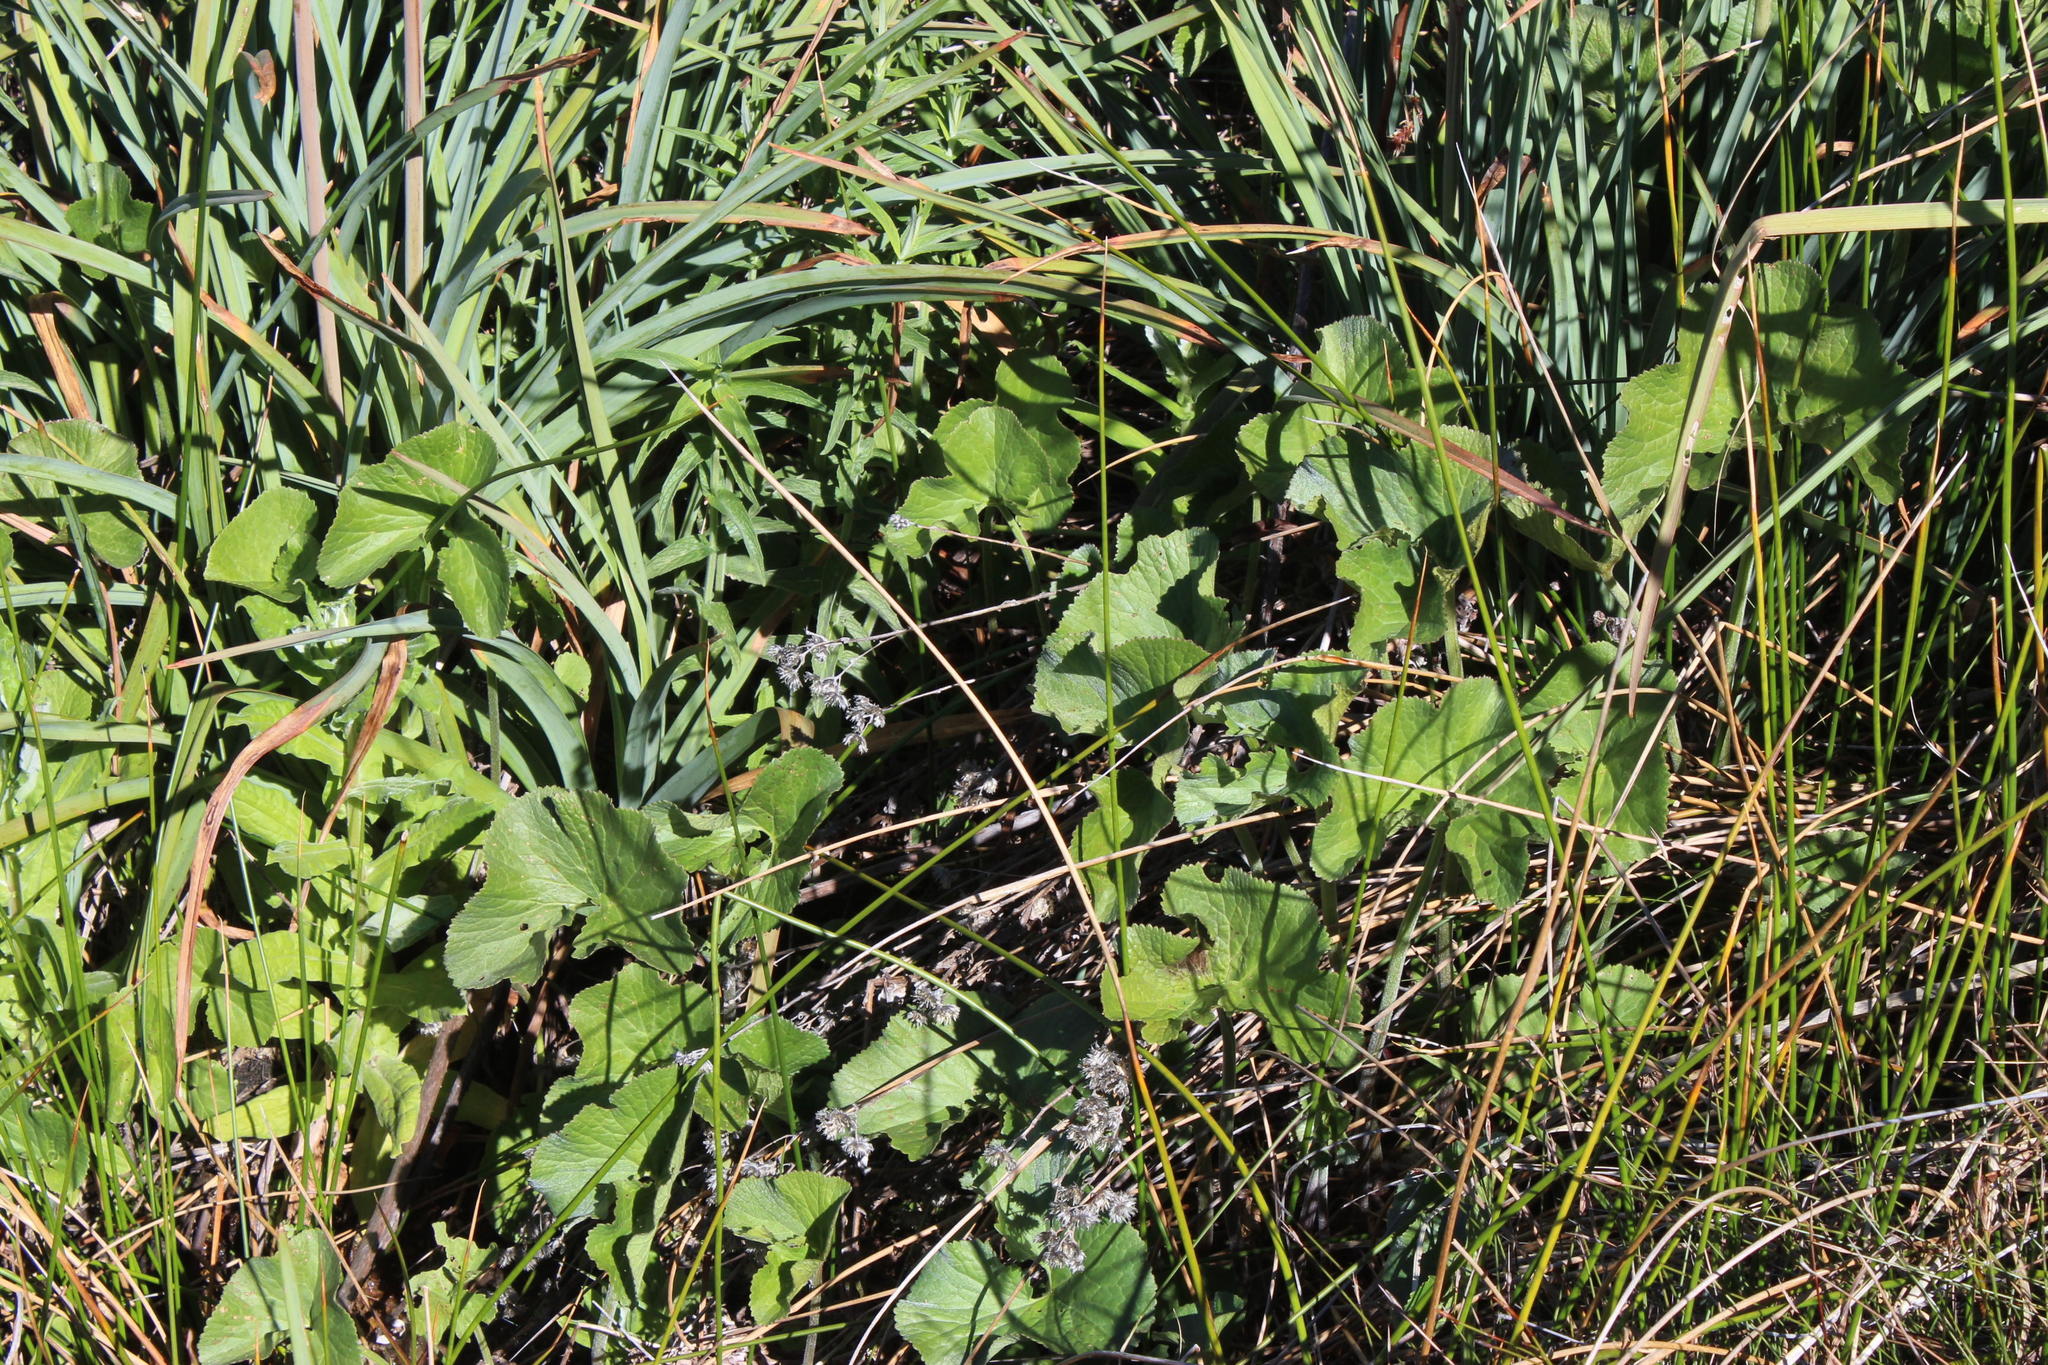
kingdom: Plantae
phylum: Tracheophyta
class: Magnoliopsida
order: Gunnerales
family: Gunneraceae
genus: Gunnera
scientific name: Gunnera perpensa
